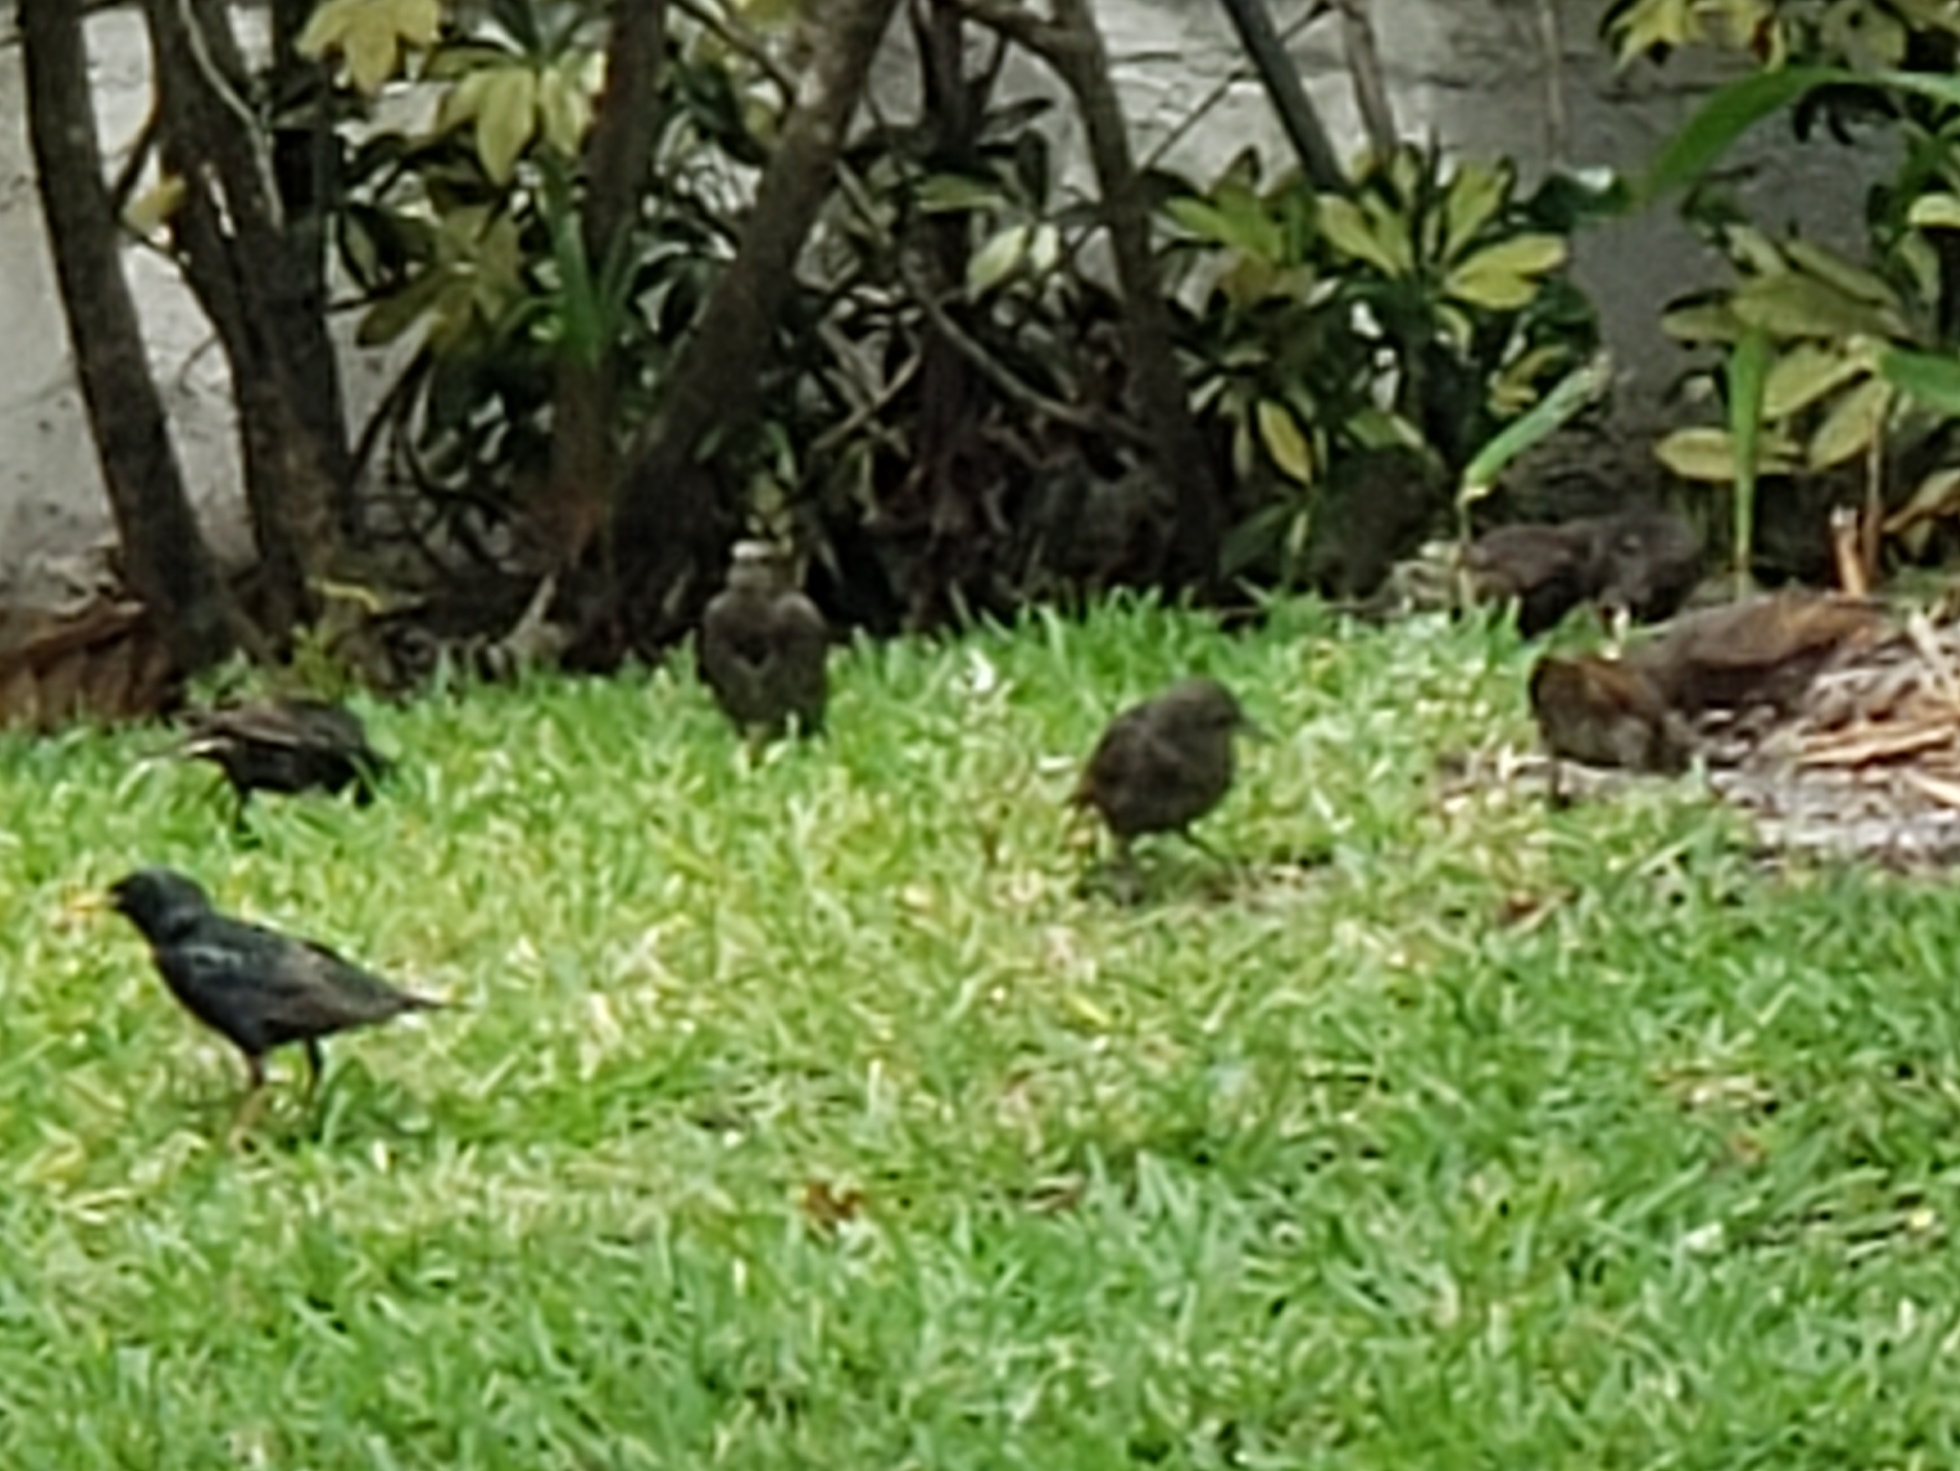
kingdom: Animalia
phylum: Chordata
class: Aves
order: Passeriformes
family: Sturnidae
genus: Sturnus
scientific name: Sturnus vulgaris
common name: Common starling
